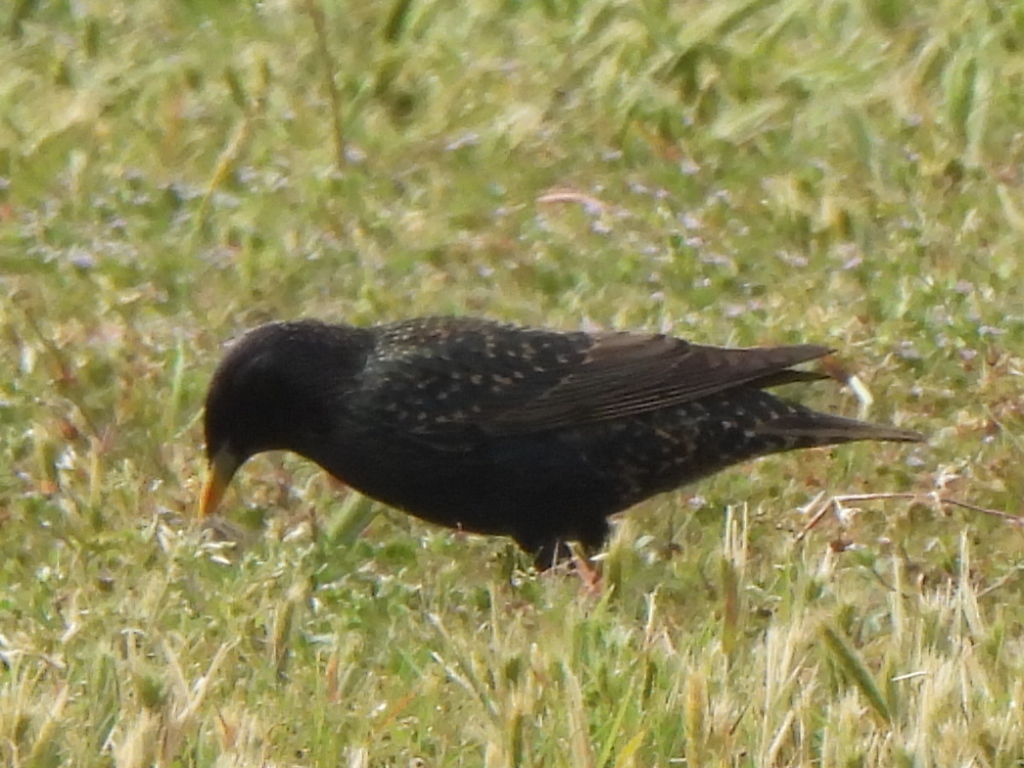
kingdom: Animalia
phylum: Chordata
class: Aves
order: Passeriformes
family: Sturnidae
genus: Sturnus
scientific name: Sturnus vulgaris
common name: Common starling
